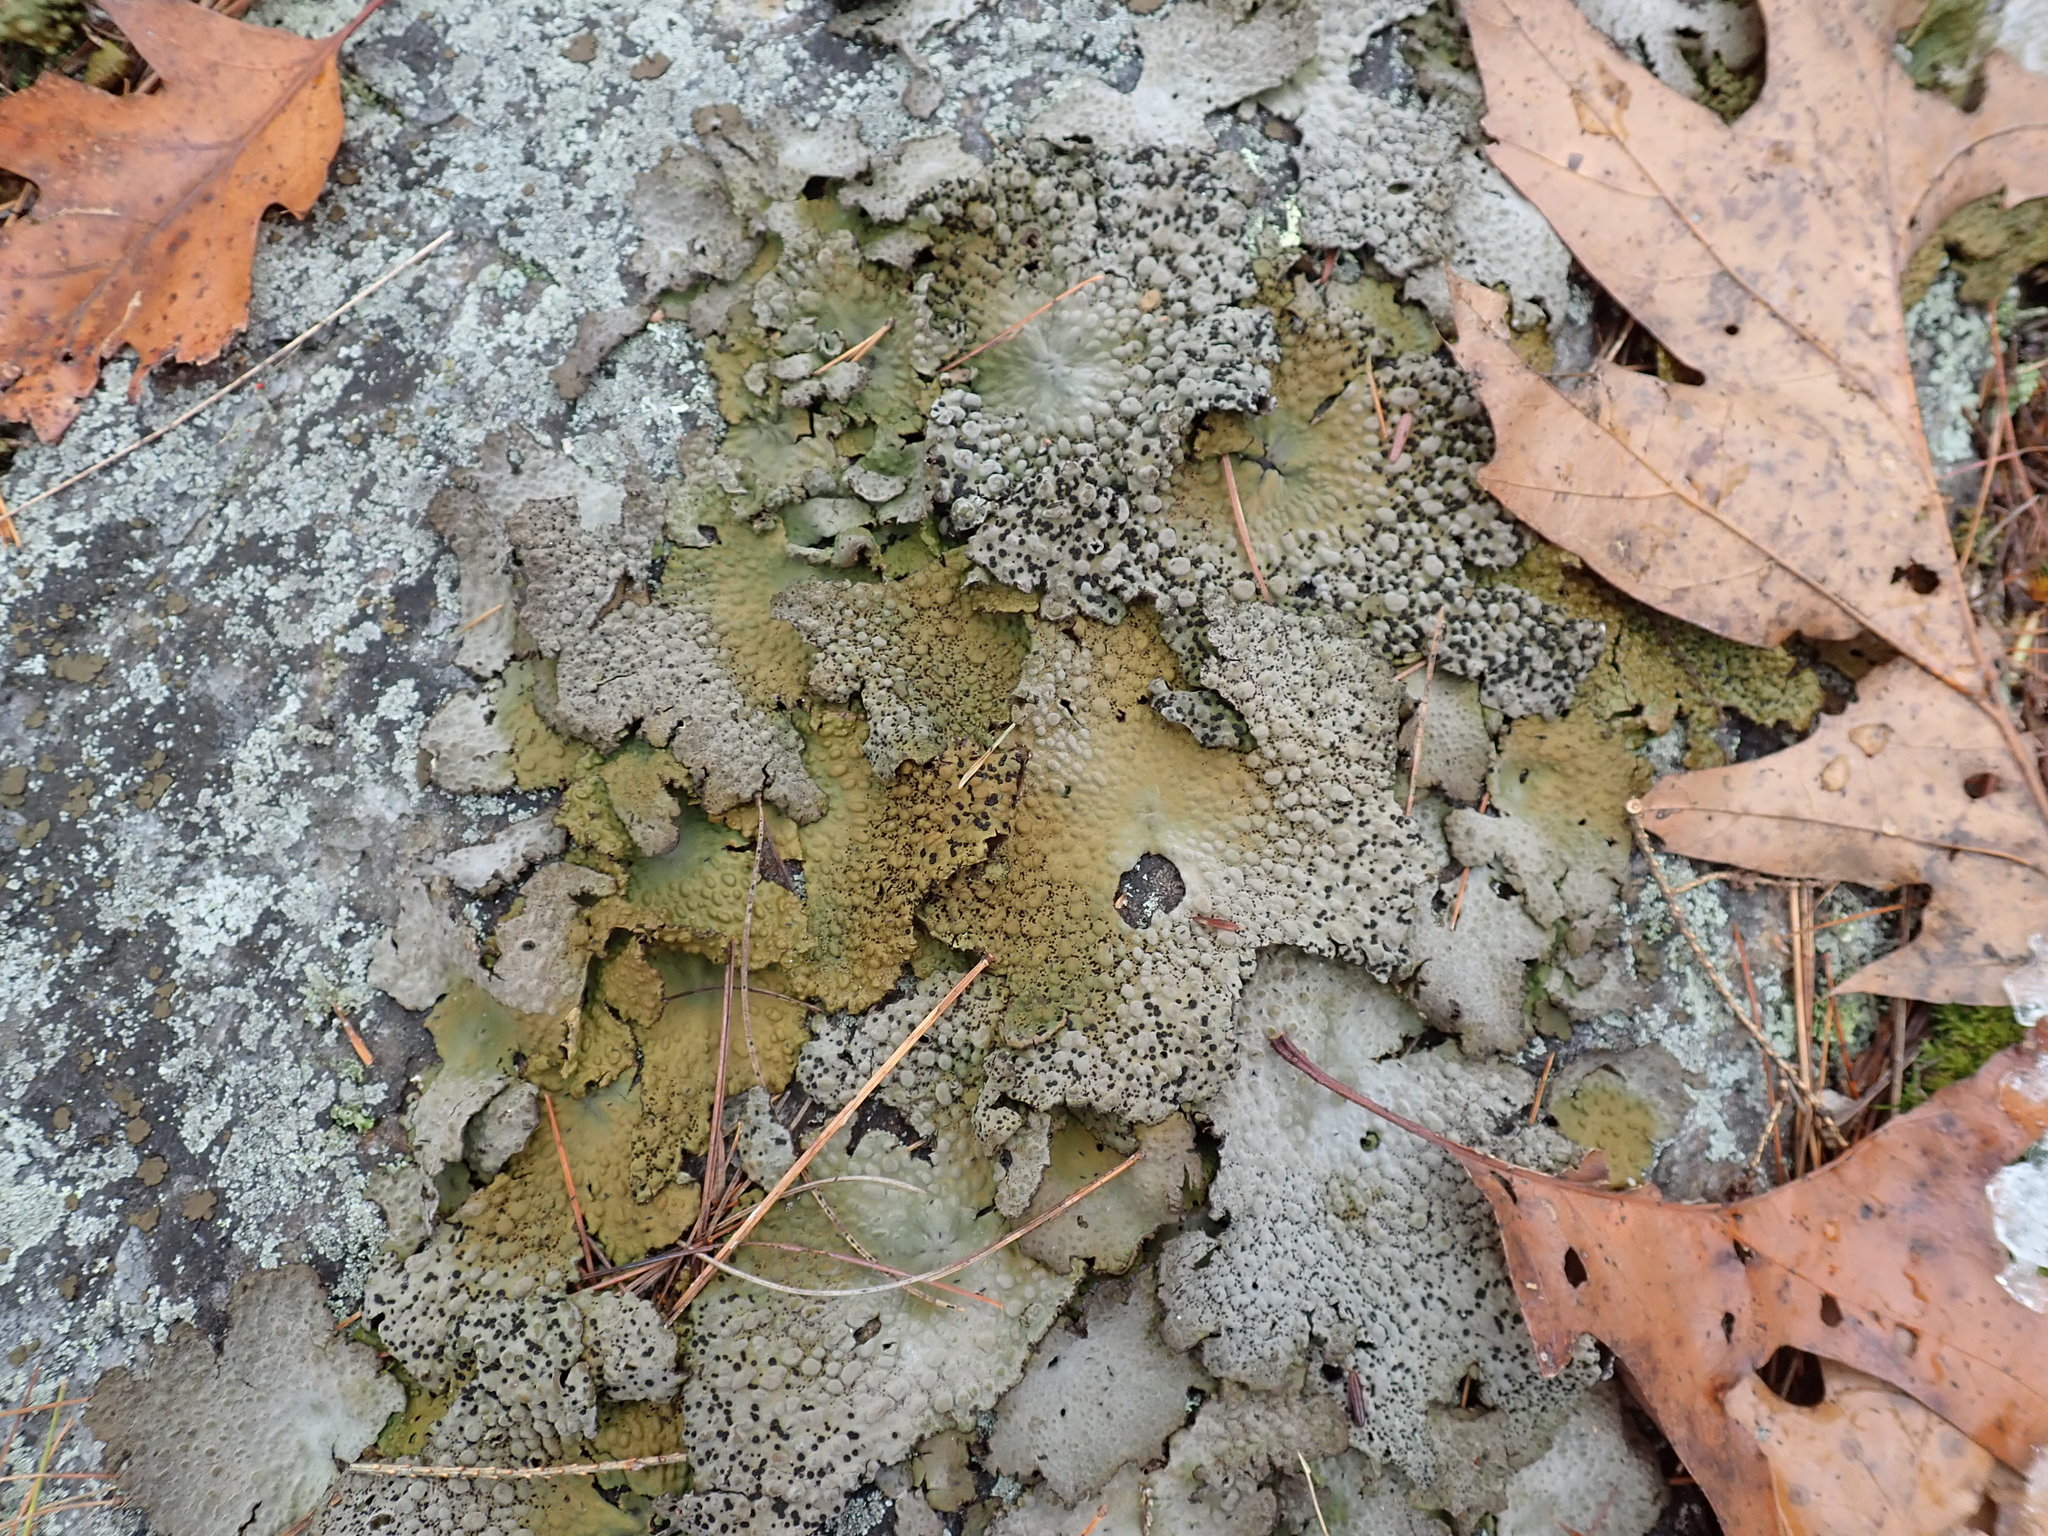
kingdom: Fungi
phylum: Ascomycota
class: Lecanoromycetes
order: Umbilicariales
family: Umbilicariaceae
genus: Lasallia
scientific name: Lasallia papulosa
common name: Common toadskin lichen
